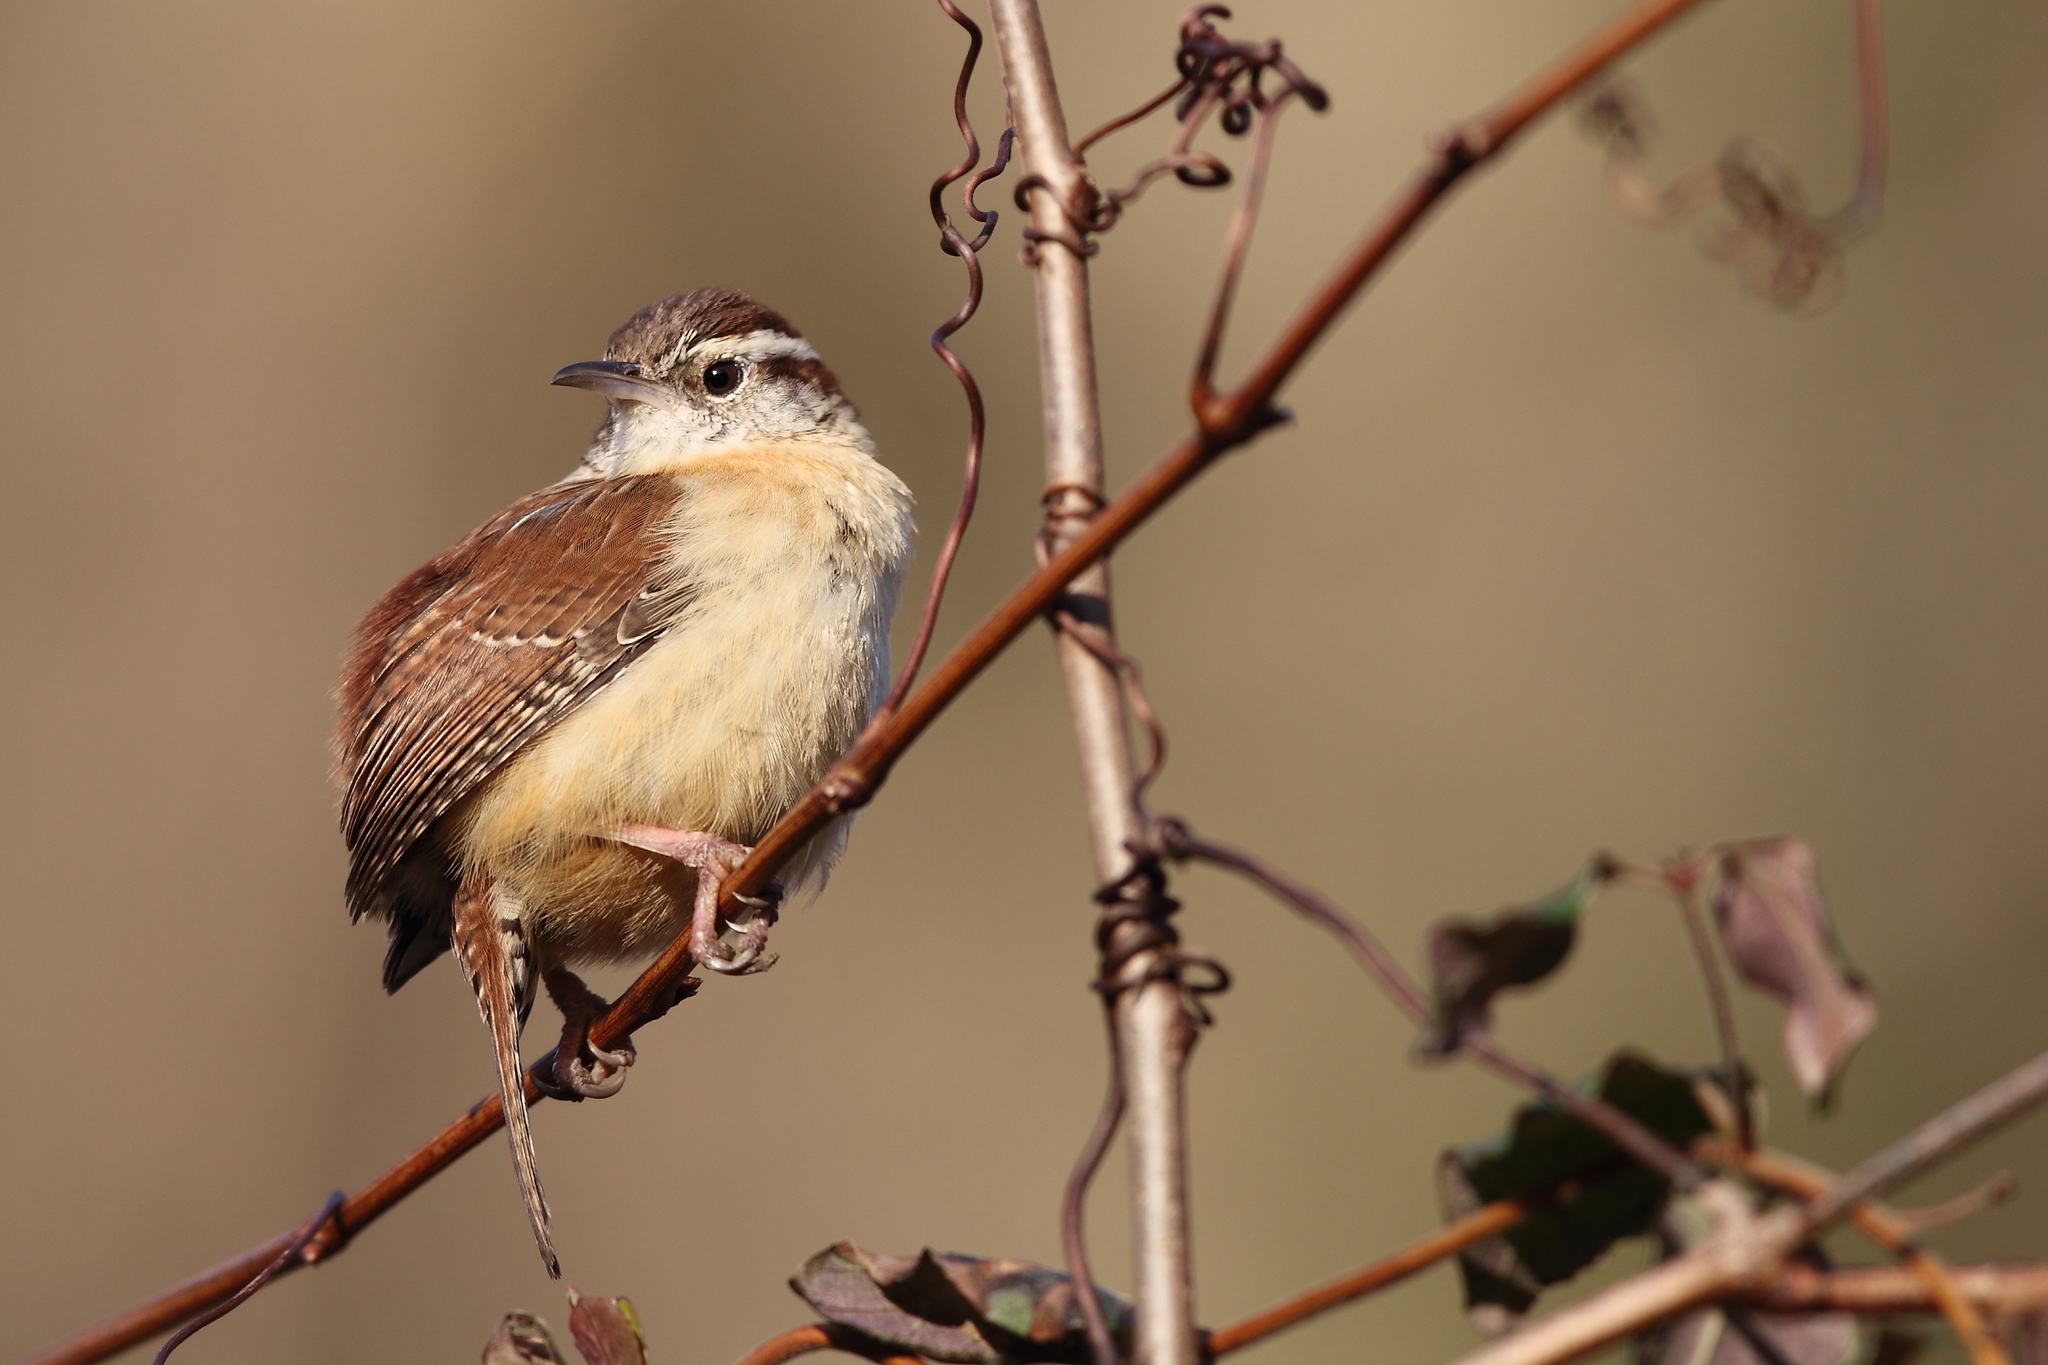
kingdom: Animalia
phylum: Chordata
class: Aves
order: Passeriformes
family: Troglodytidae
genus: Thryothorus
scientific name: Thryothorus ludovicianus
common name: Carolina wren
